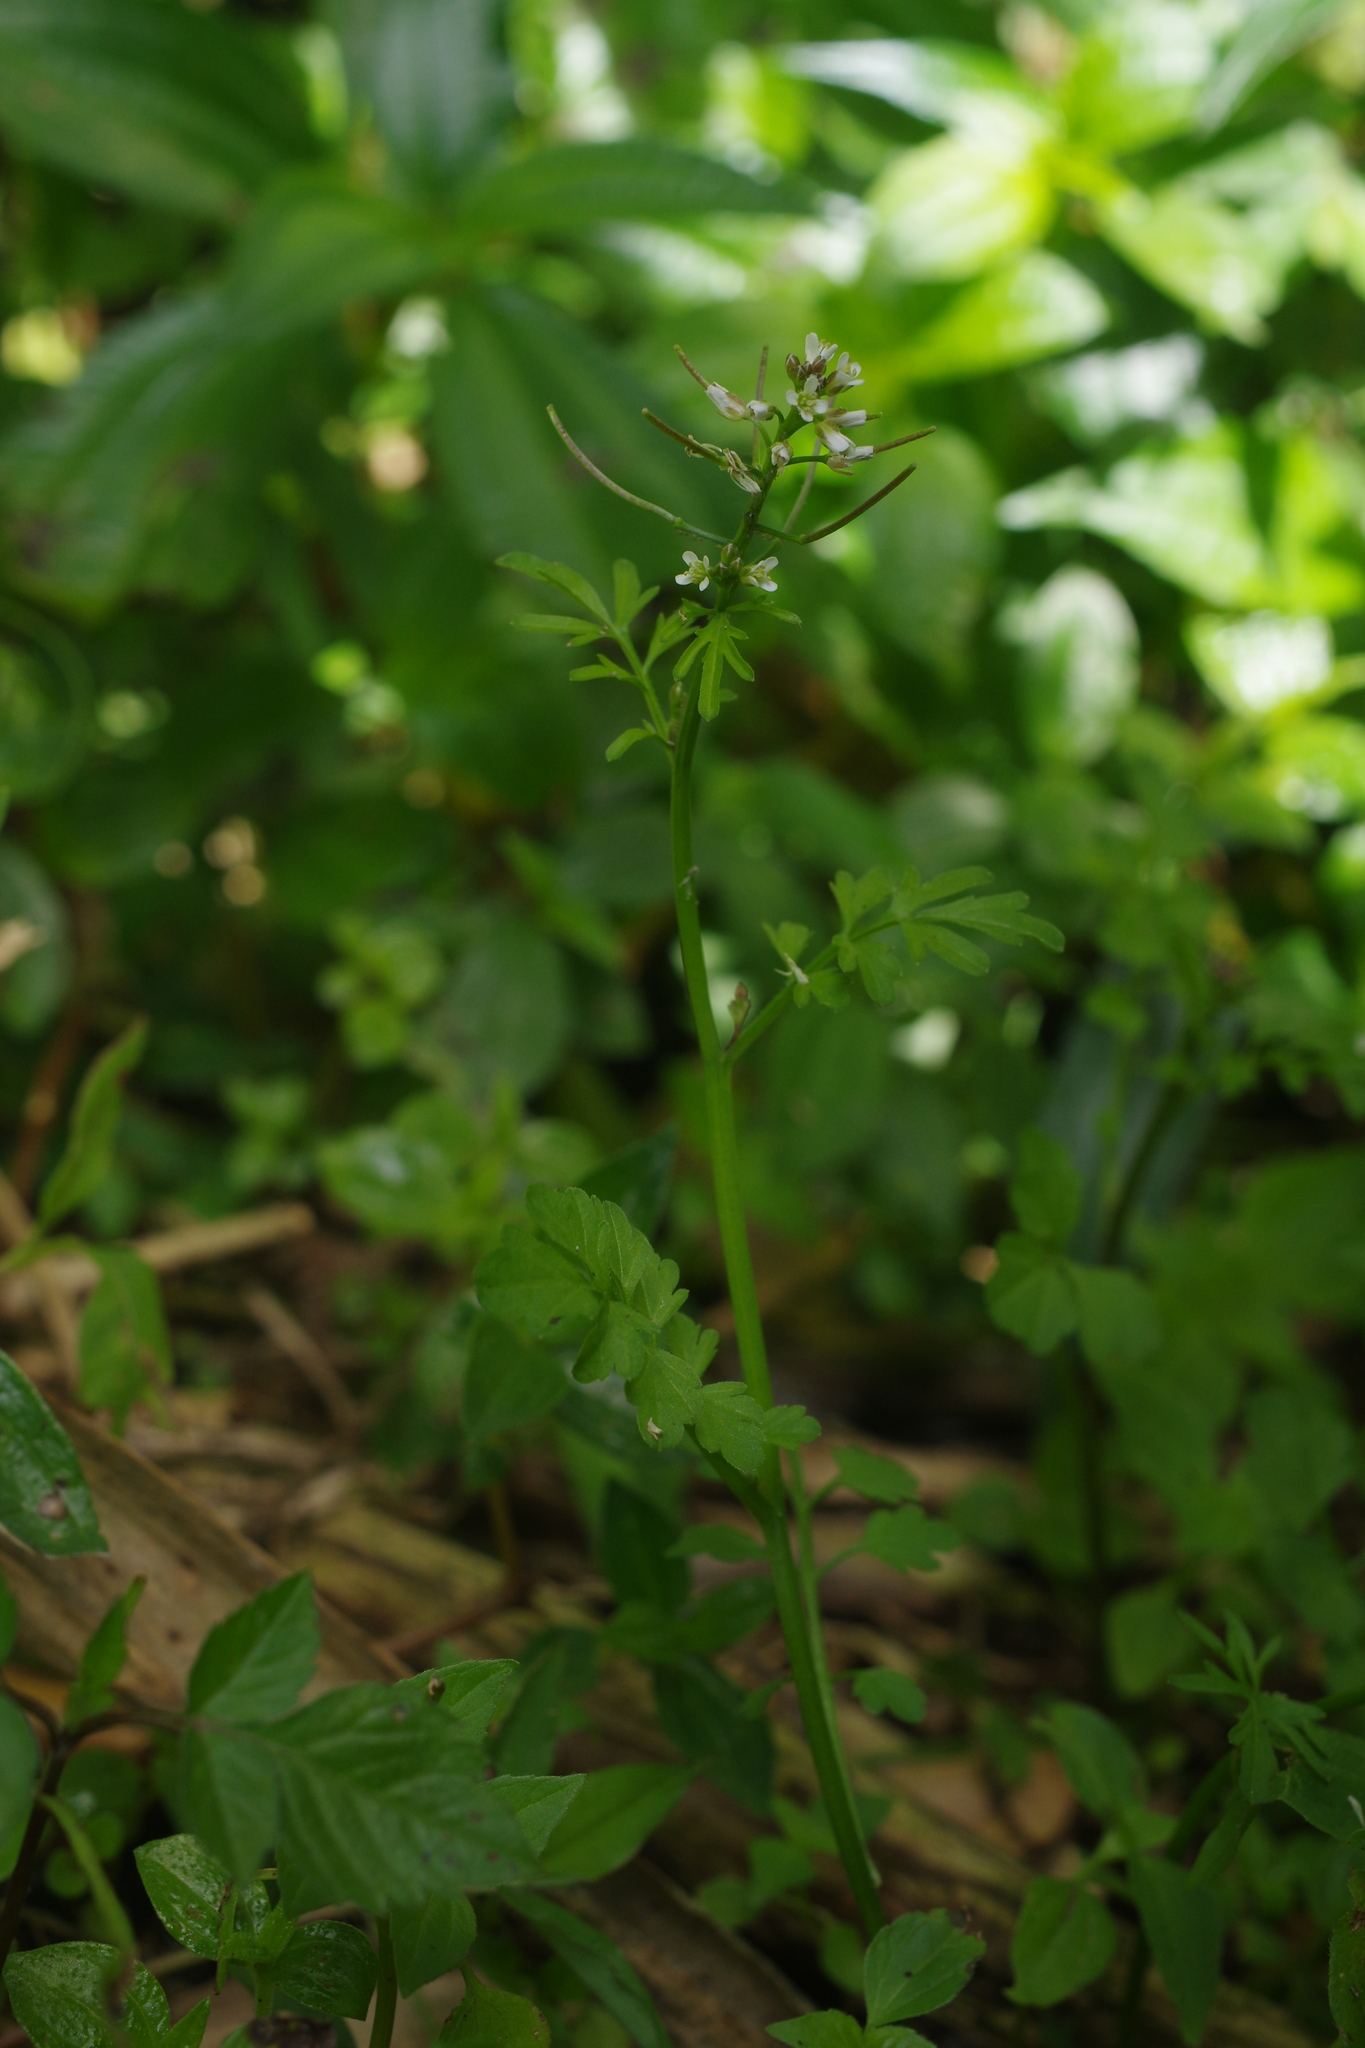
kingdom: Plantae
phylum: Tracheophyta
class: Magnoliopsida
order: Brassicales
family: Brassicaceae
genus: Cardamine
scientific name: Cardamine flexuosa
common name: Woodland bittercress
